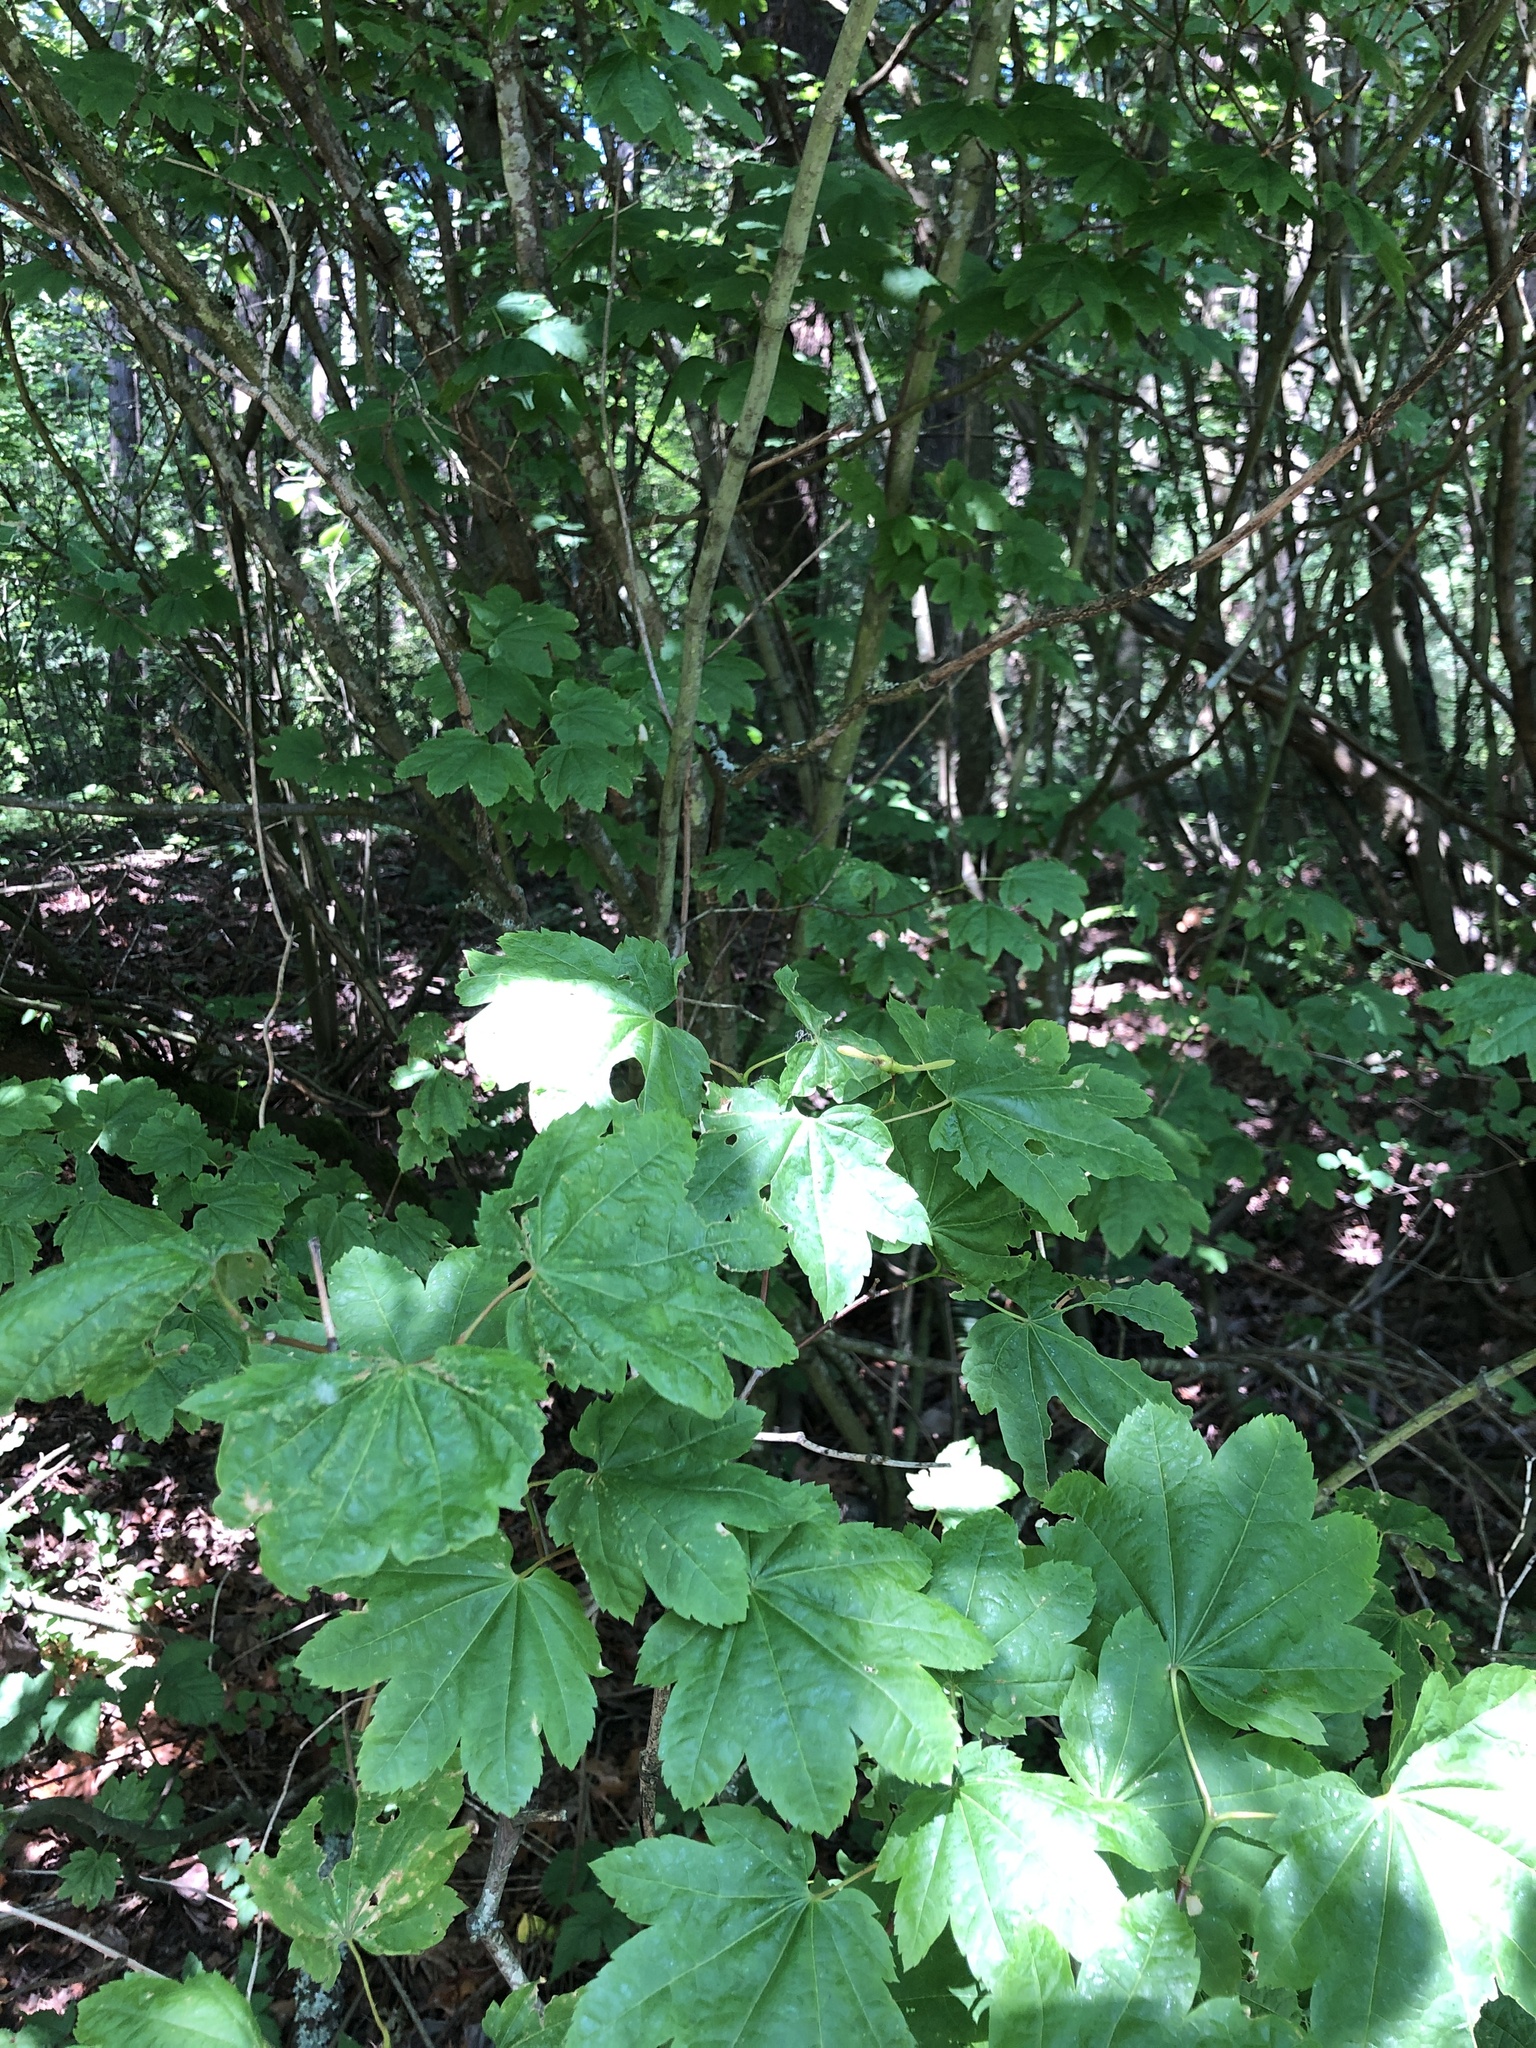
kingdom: Plantae
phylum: Tracheophyta
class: Magnoliopsida
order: Sapindales
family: Sapindaceae
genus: Acer
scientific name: Acer circinatum
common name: Vine maple
